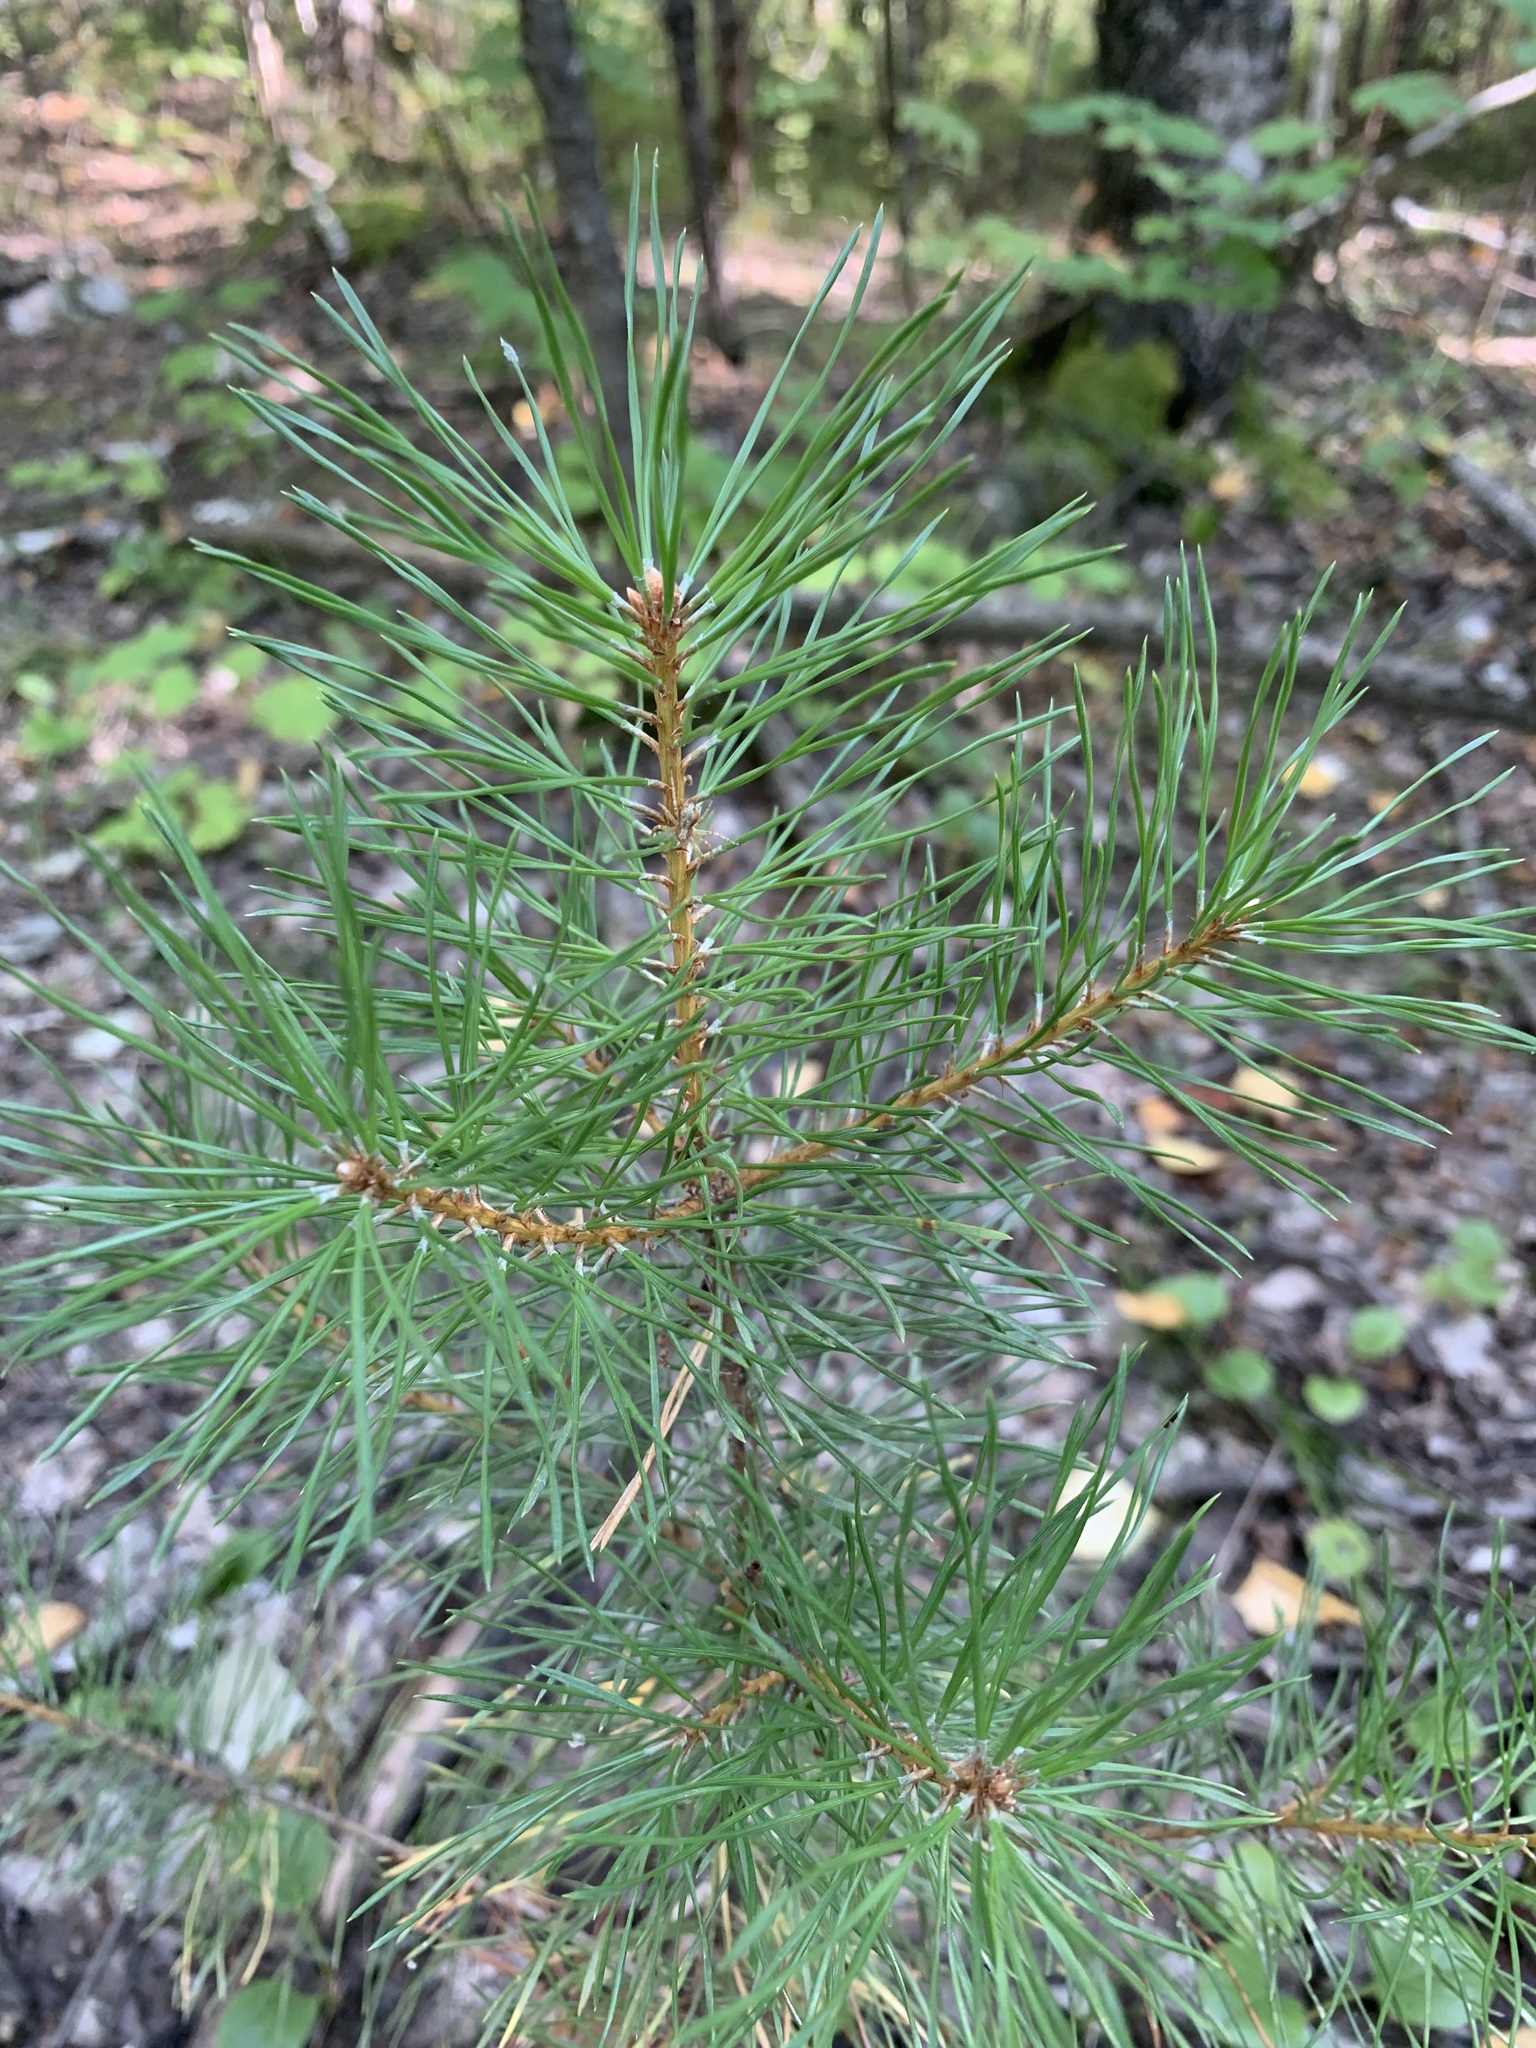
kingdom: Plantae
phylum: Tracheophyta
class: Pinopsida
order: Pinales
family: Pinaceae
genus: Pinus
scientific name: Pinus sylvestris
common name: Scots pine
